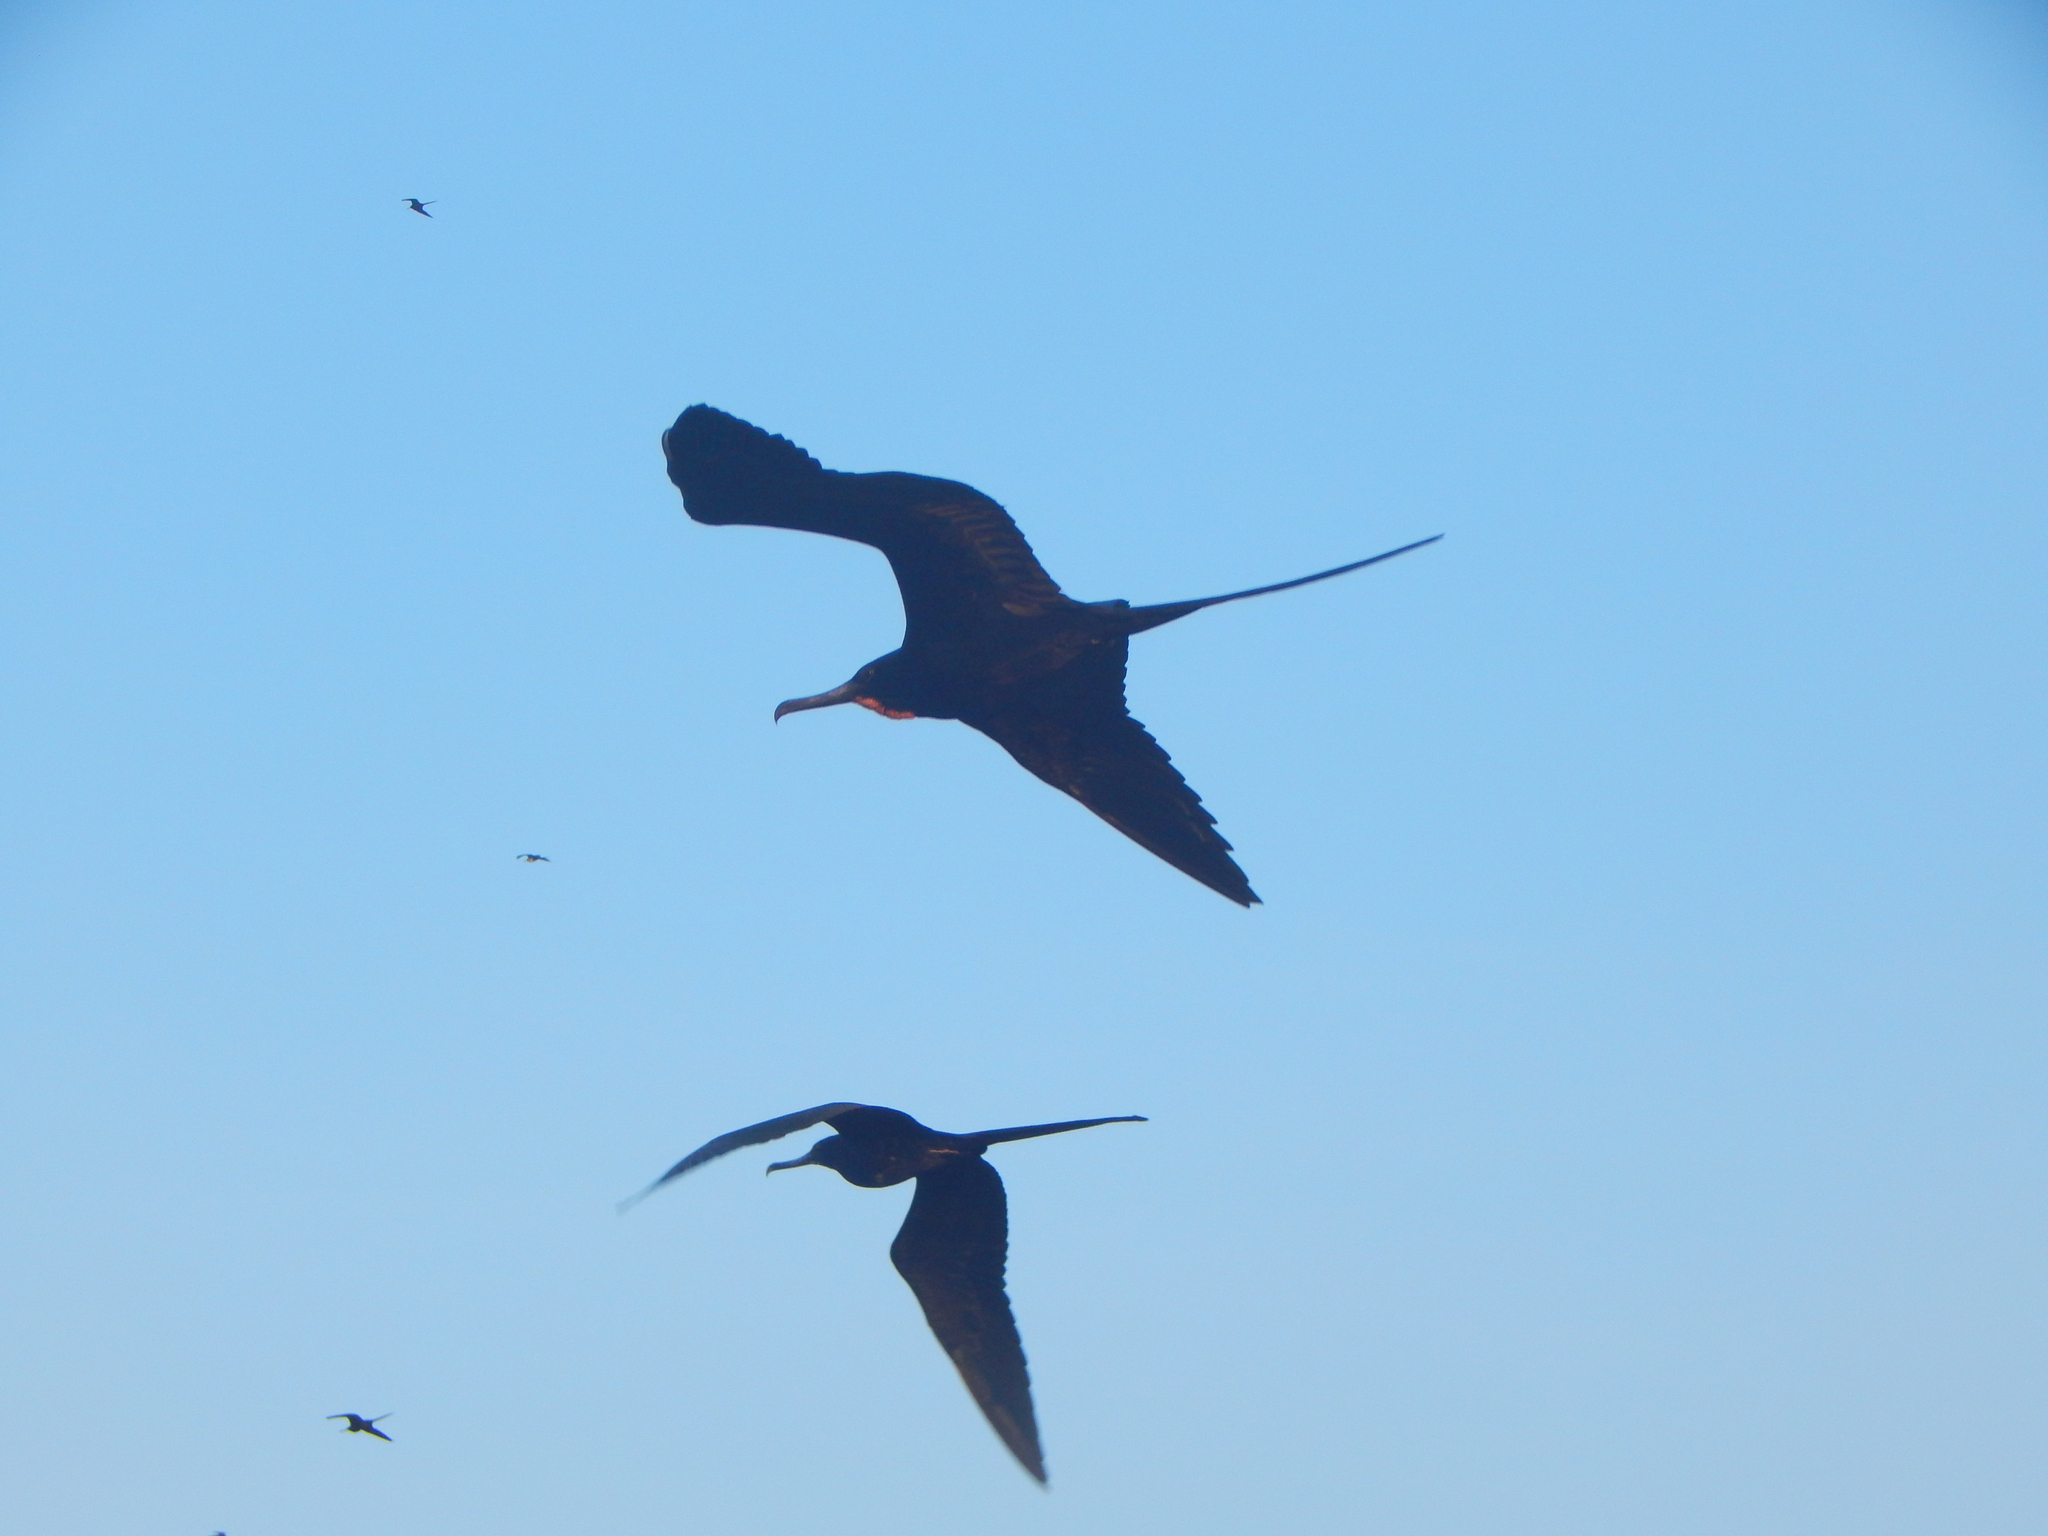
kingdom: Animalia
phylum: Chordata
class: Aves
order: Suliformes
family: Fregatidae
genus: Fregata
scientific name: Fregata magnificens
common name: Magnificent frigatebird
